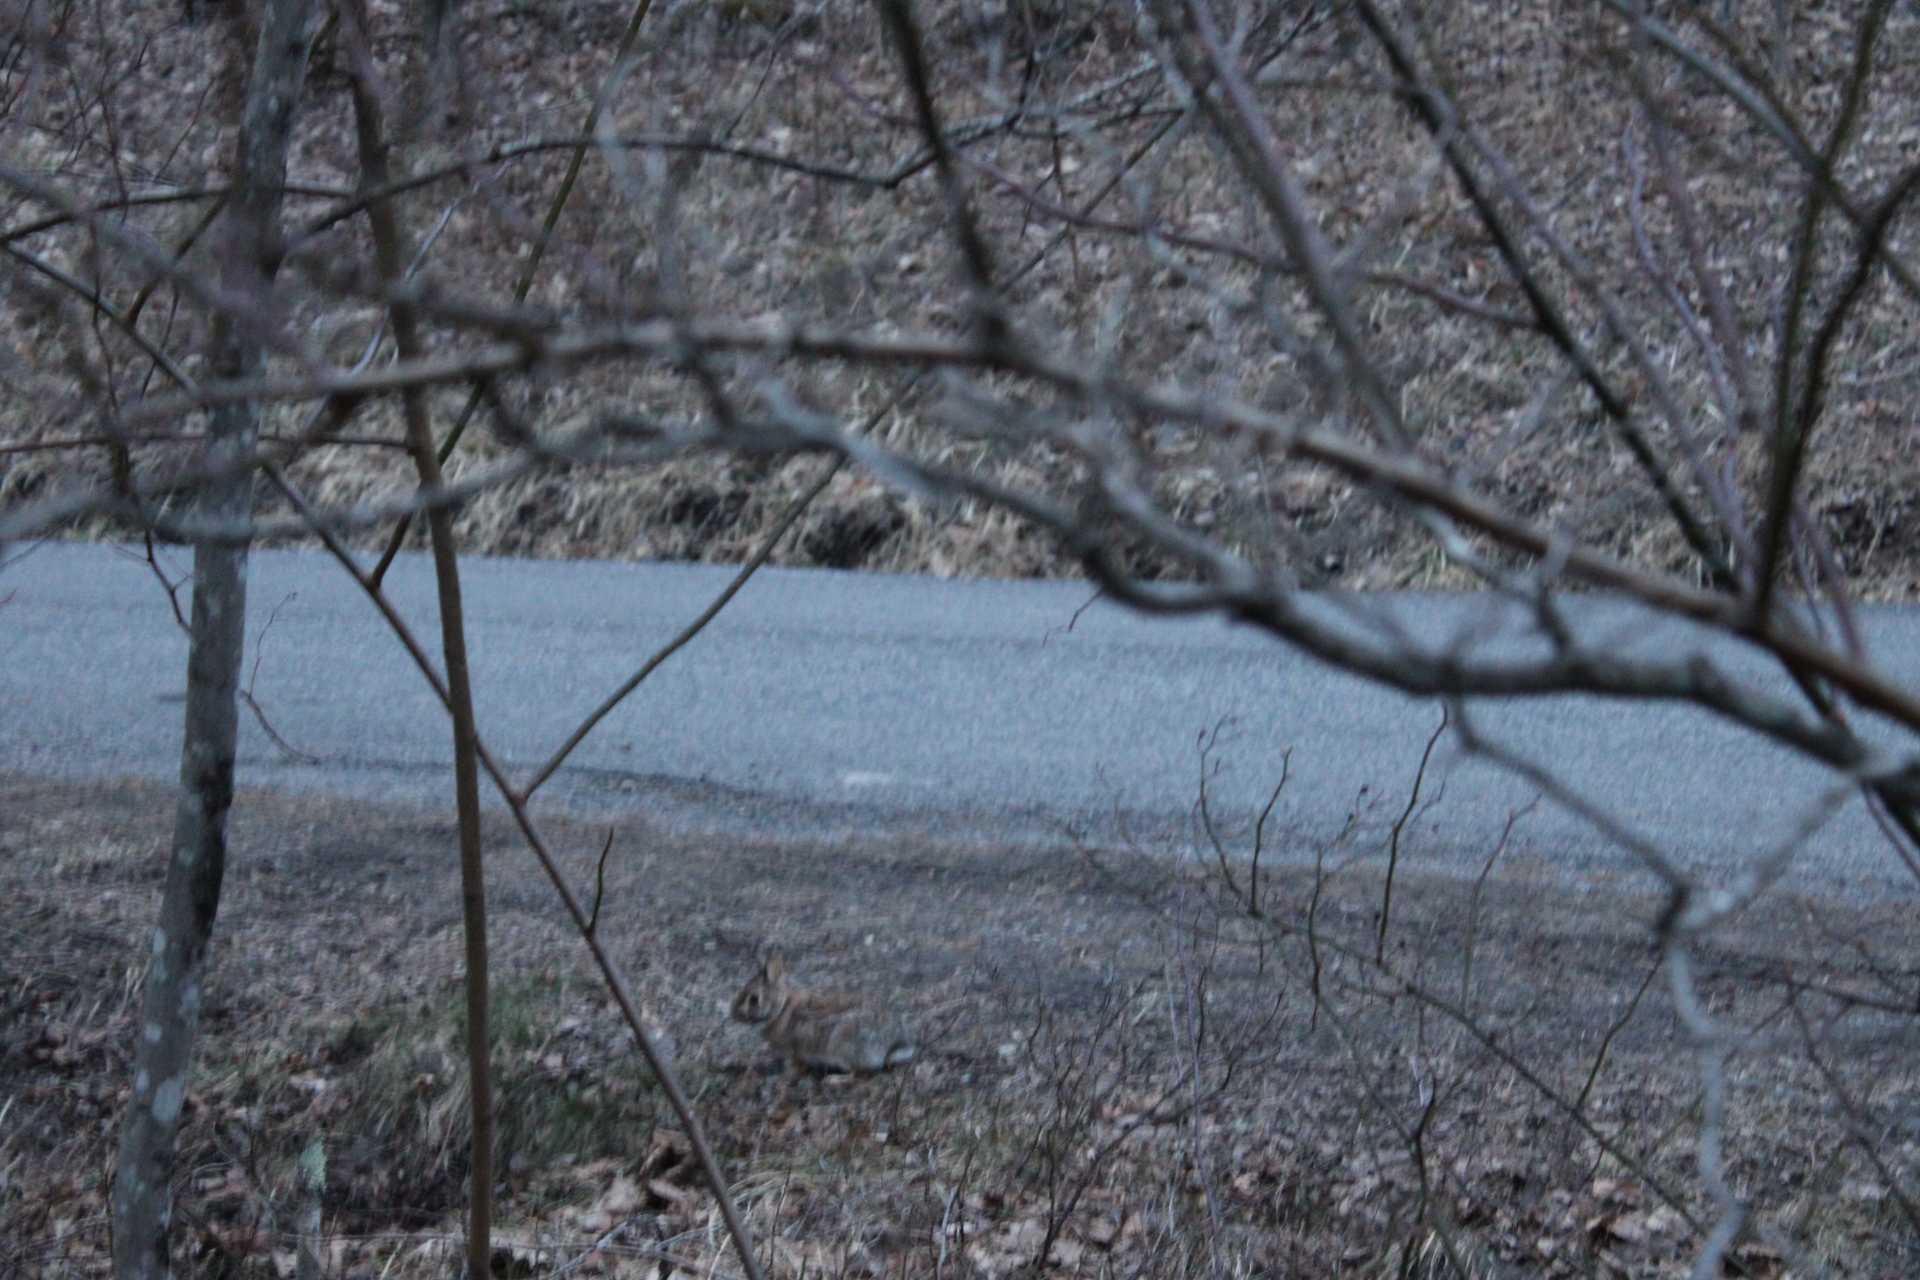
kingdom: Animalia
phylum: Chordata
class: Mammalia
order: Lagomorpha
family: Leporidae
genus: Sylvilagus
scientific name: Sylvilagus floridanus
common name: Eastern cottontail
